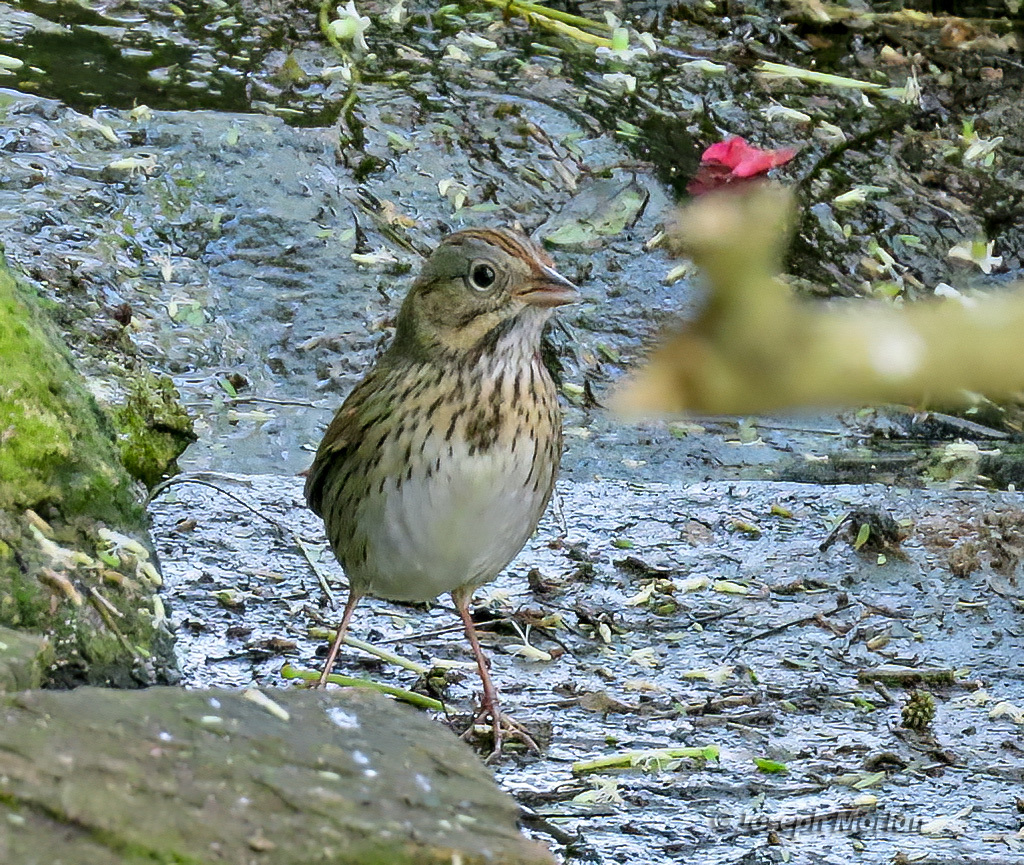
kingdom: Animalia
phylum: Chordata
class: Aves
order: Passeriformes
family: Passerellidae
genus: Melospiza
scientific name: Melospiza lincolnii
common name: Lincoln's sparrow
